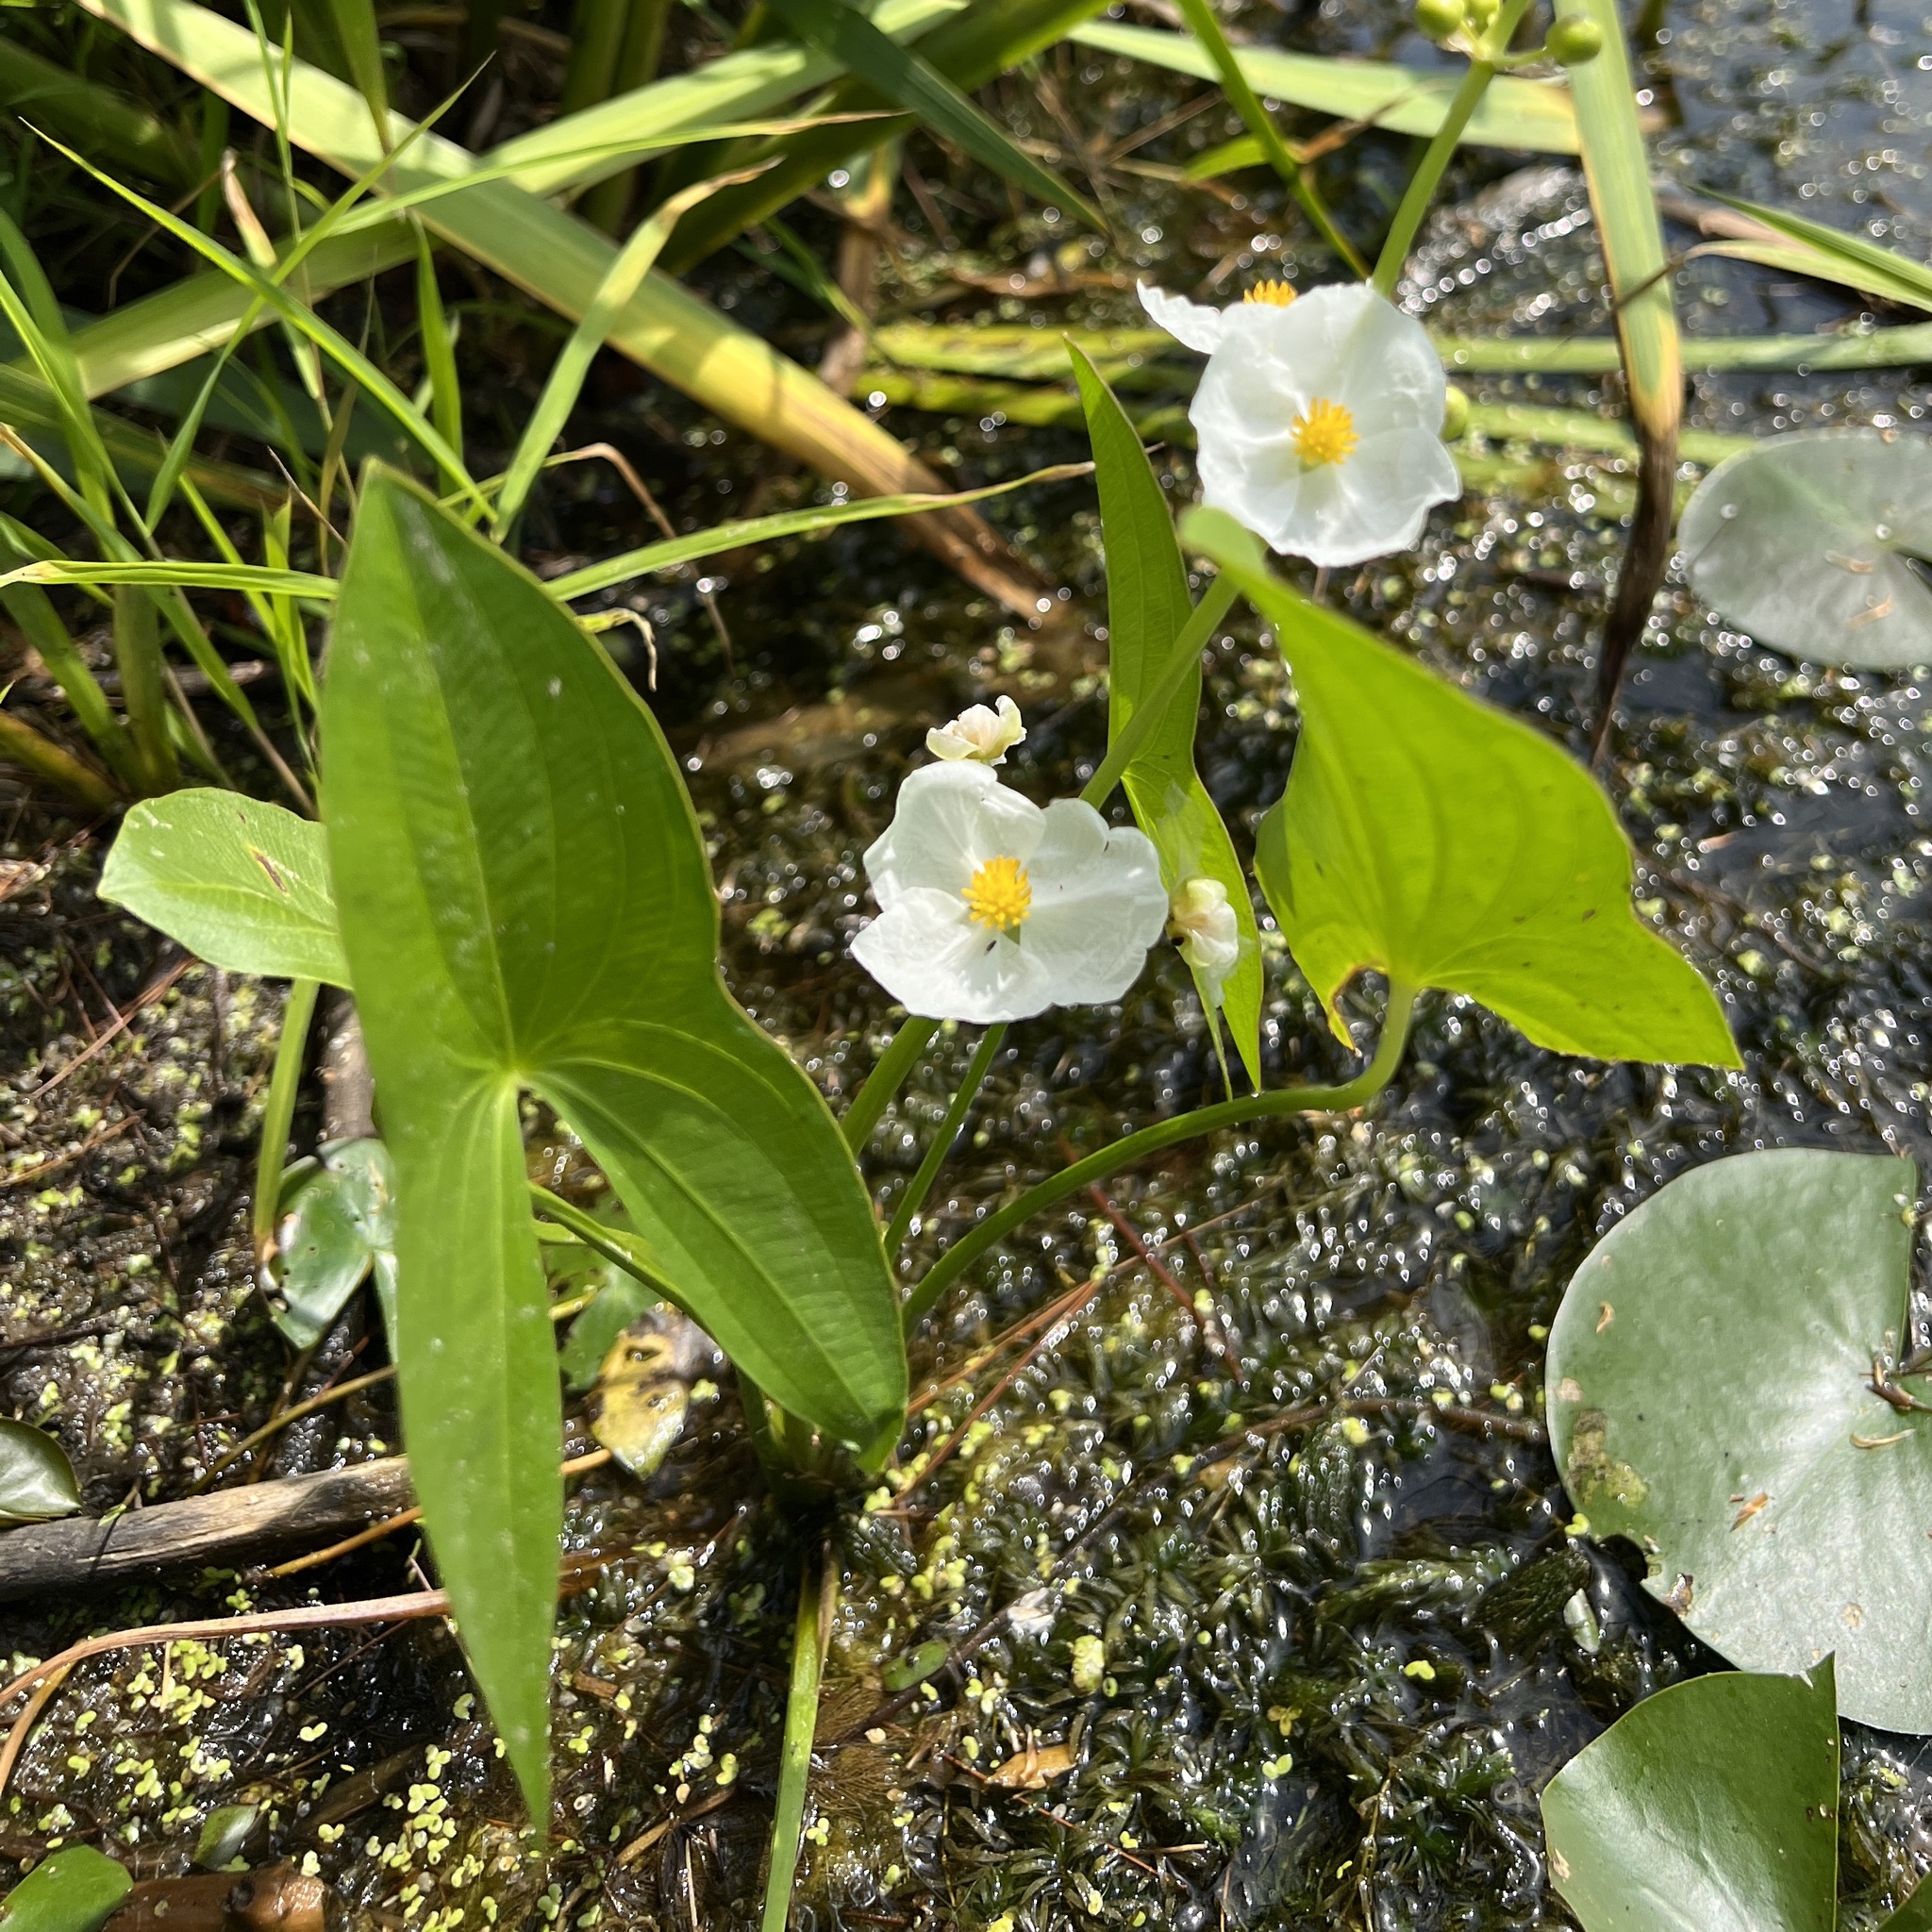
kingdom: Plantae
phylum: Tracheophyta
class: Liliopsida
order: Alismatales
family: Alismataceae
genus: Sagittaria
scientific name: Sagittaria latifolia
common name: Duck-potato
